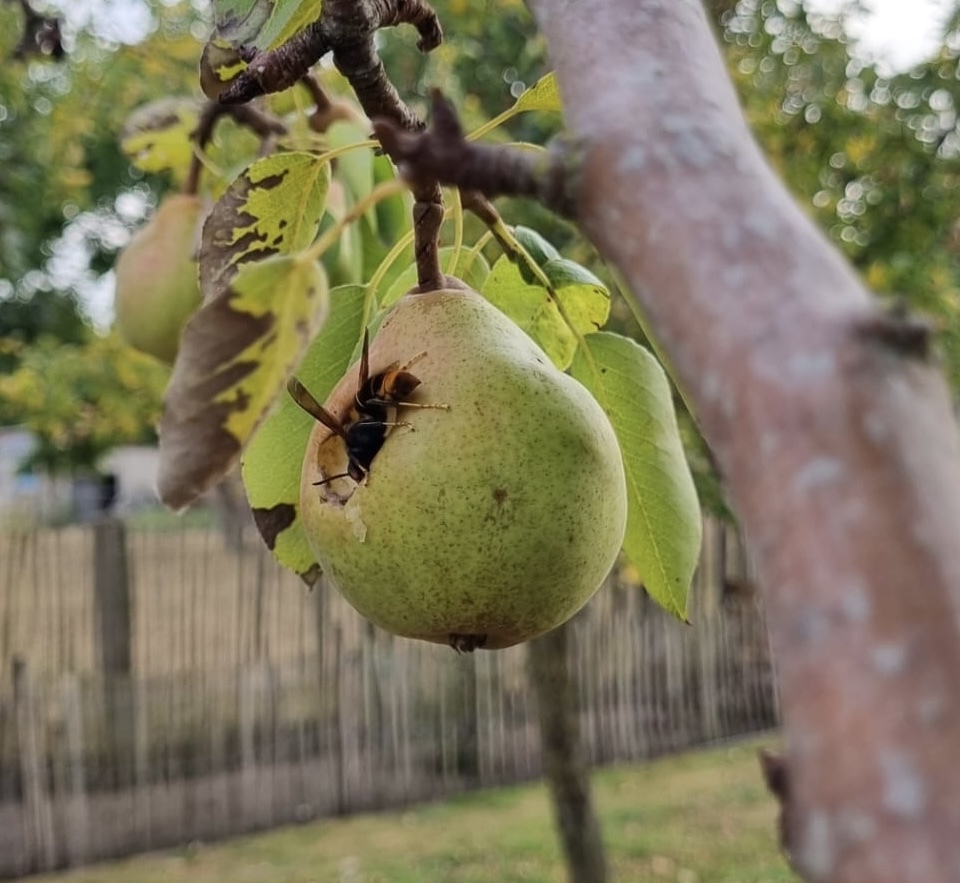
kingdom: Animalia
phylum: Arthropoda
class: Insecta
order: Hymenoptera
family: Vespidae
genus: Vespa
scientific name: Vespa velutina
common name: Asian hornet
